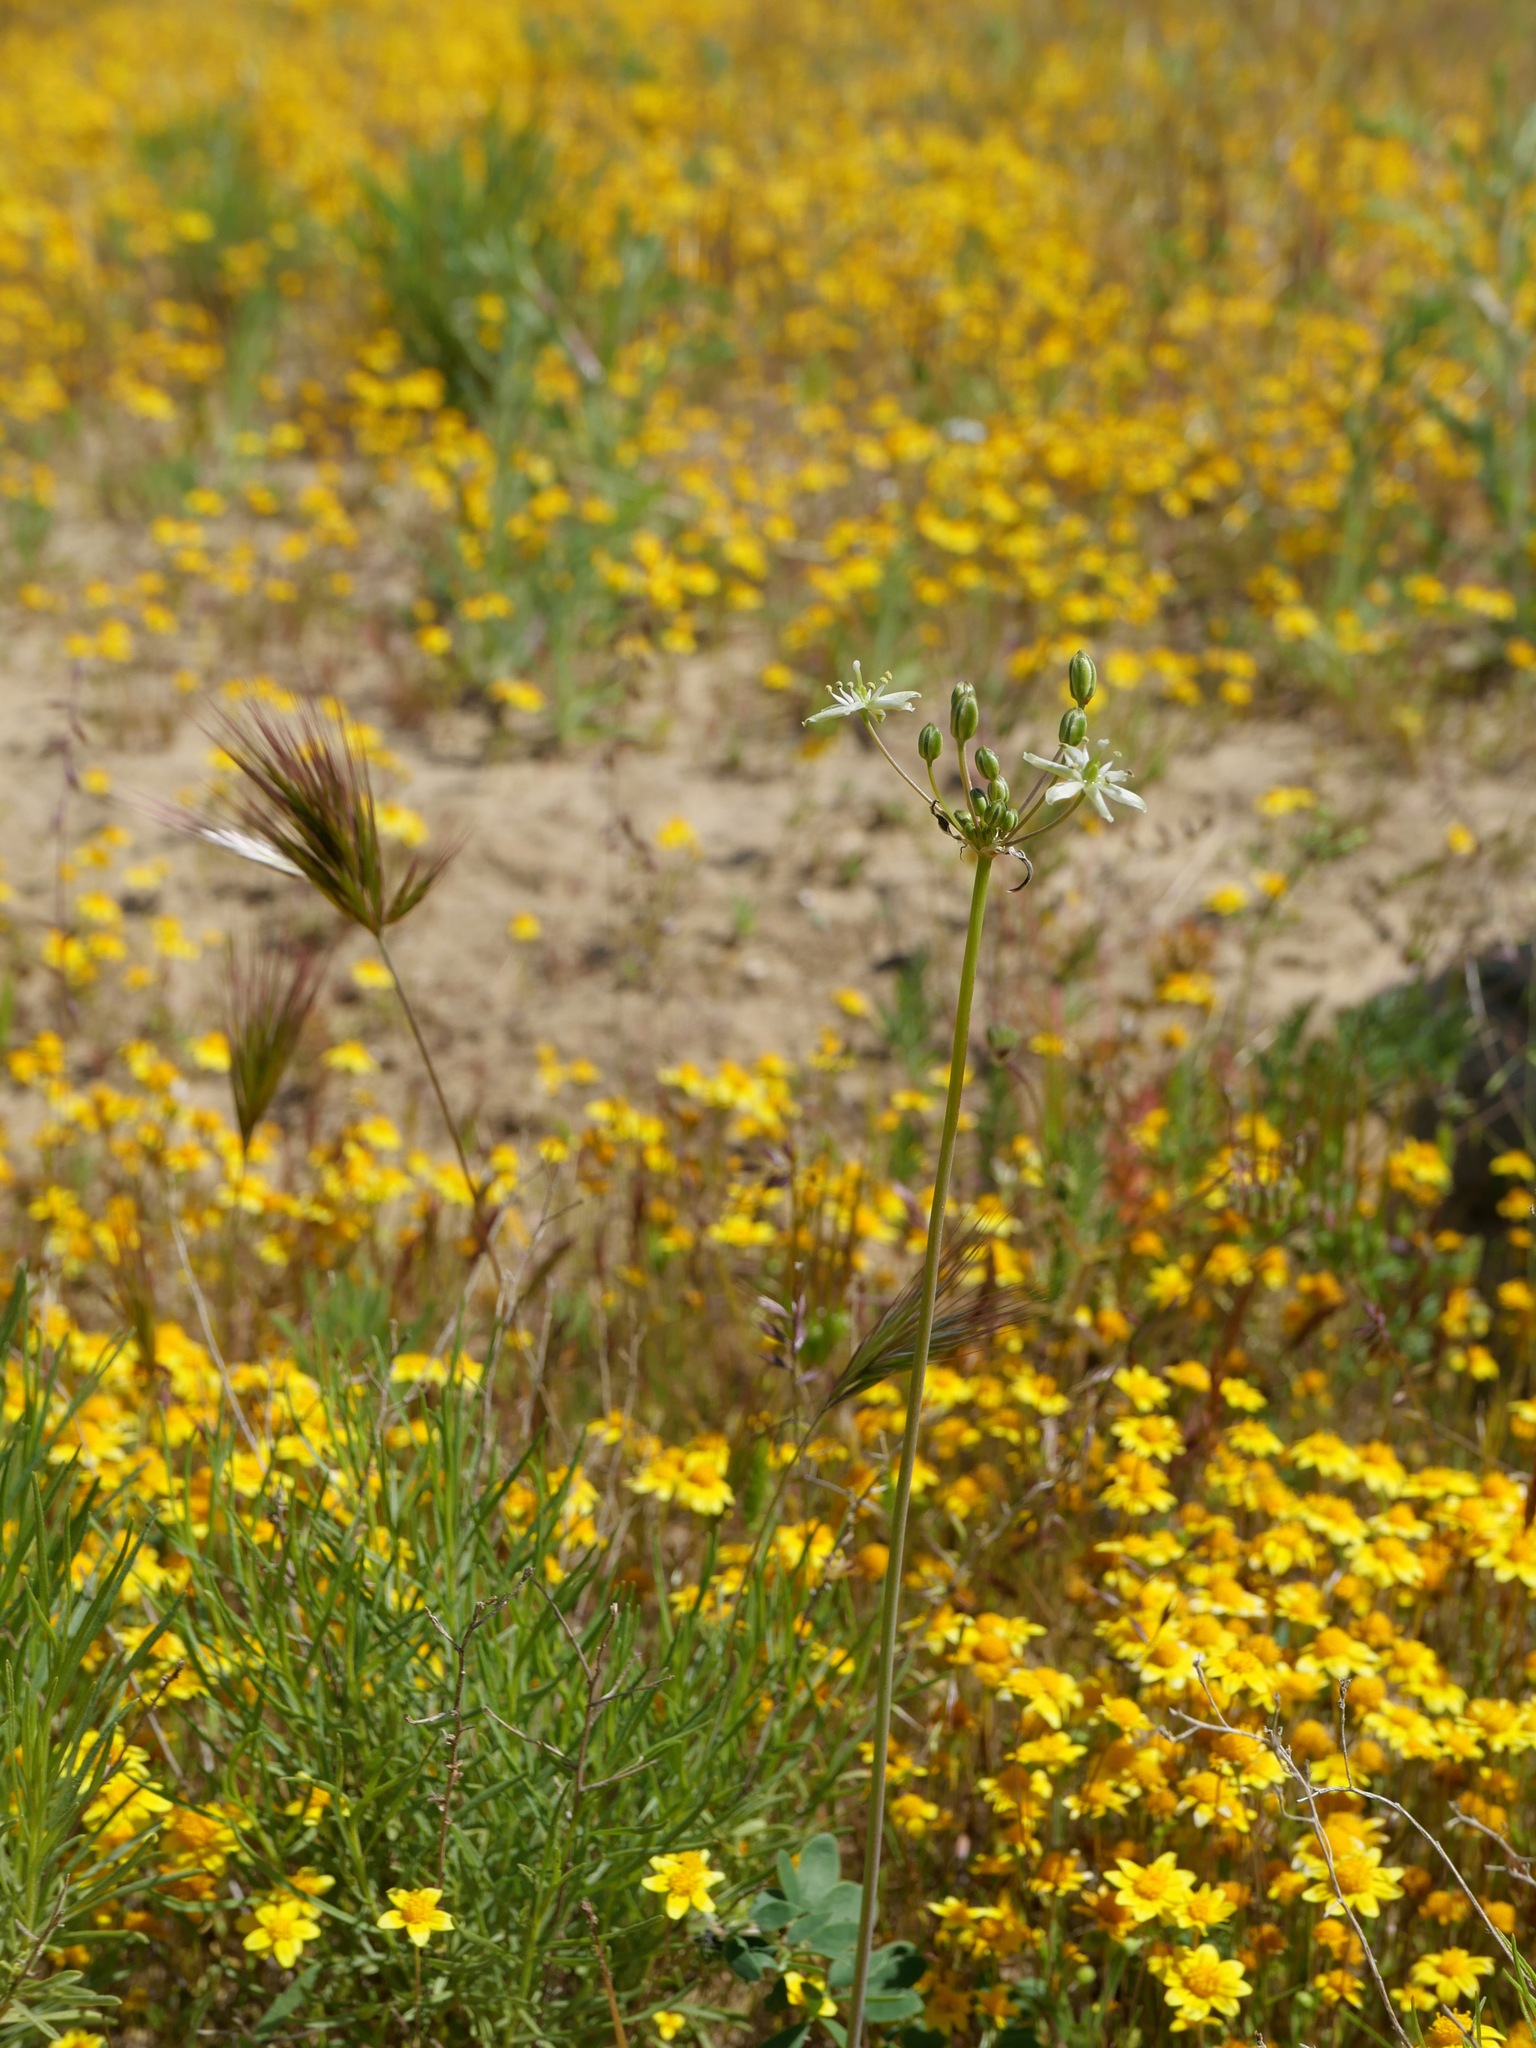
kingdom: Plantae
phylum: Tracheophyta
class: Liliopsida
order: Asparagales
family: Asparagaceae
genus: Muilla
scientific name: Muilla maritima
